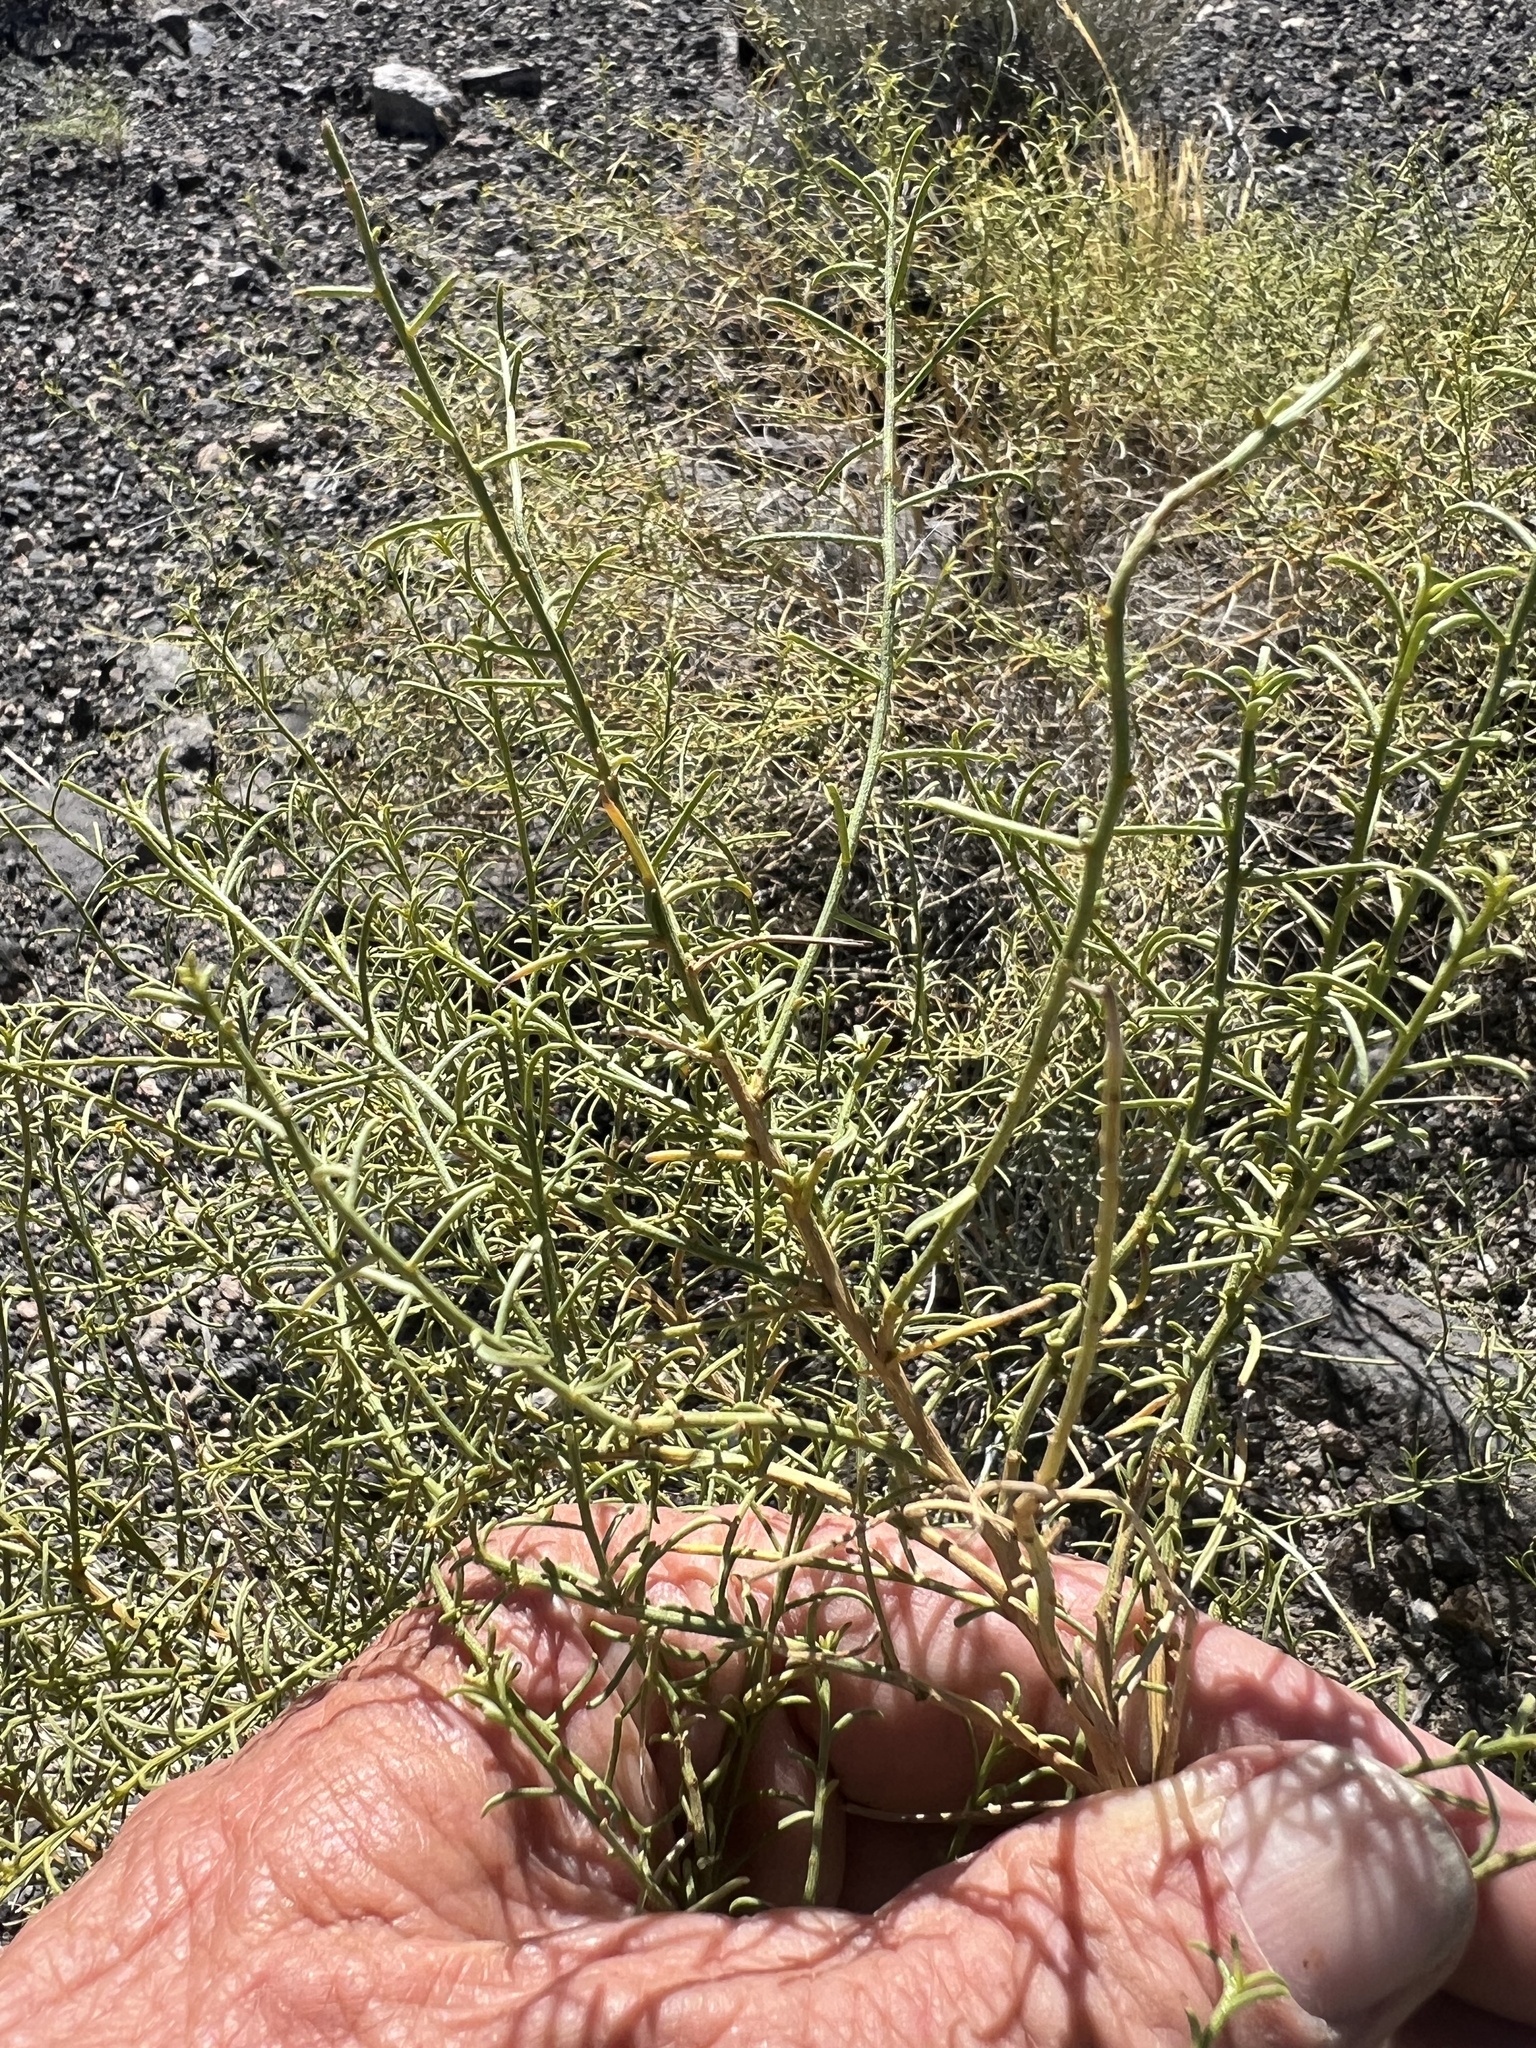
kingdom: Plantae
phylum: Tracheophyta
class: Magnoliopsida
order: Asterales
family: Asteraceae
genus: Ambrosia
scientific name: Ambrosia salsola
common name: Burrobrush
